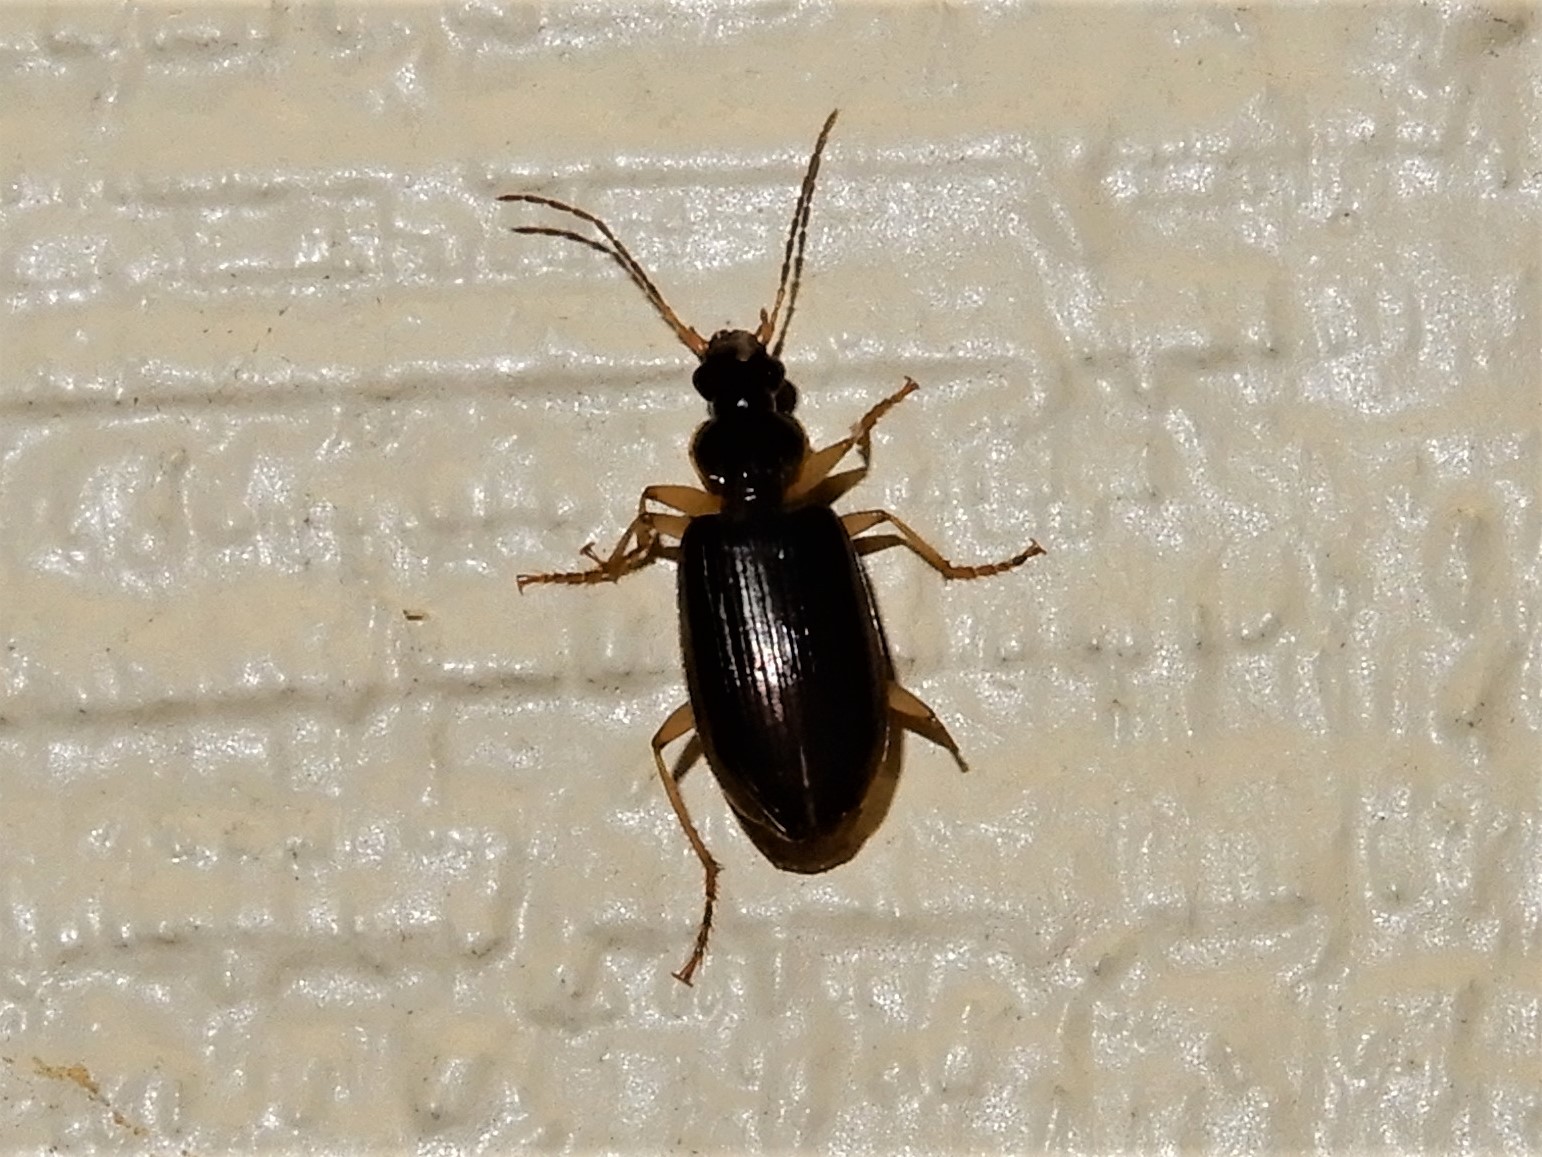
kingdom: Animalia
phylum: Arthropoda
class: Insecta
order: Coleoptera
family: Carabidae
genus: Notagonum
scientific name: Notagonum submetallicum
